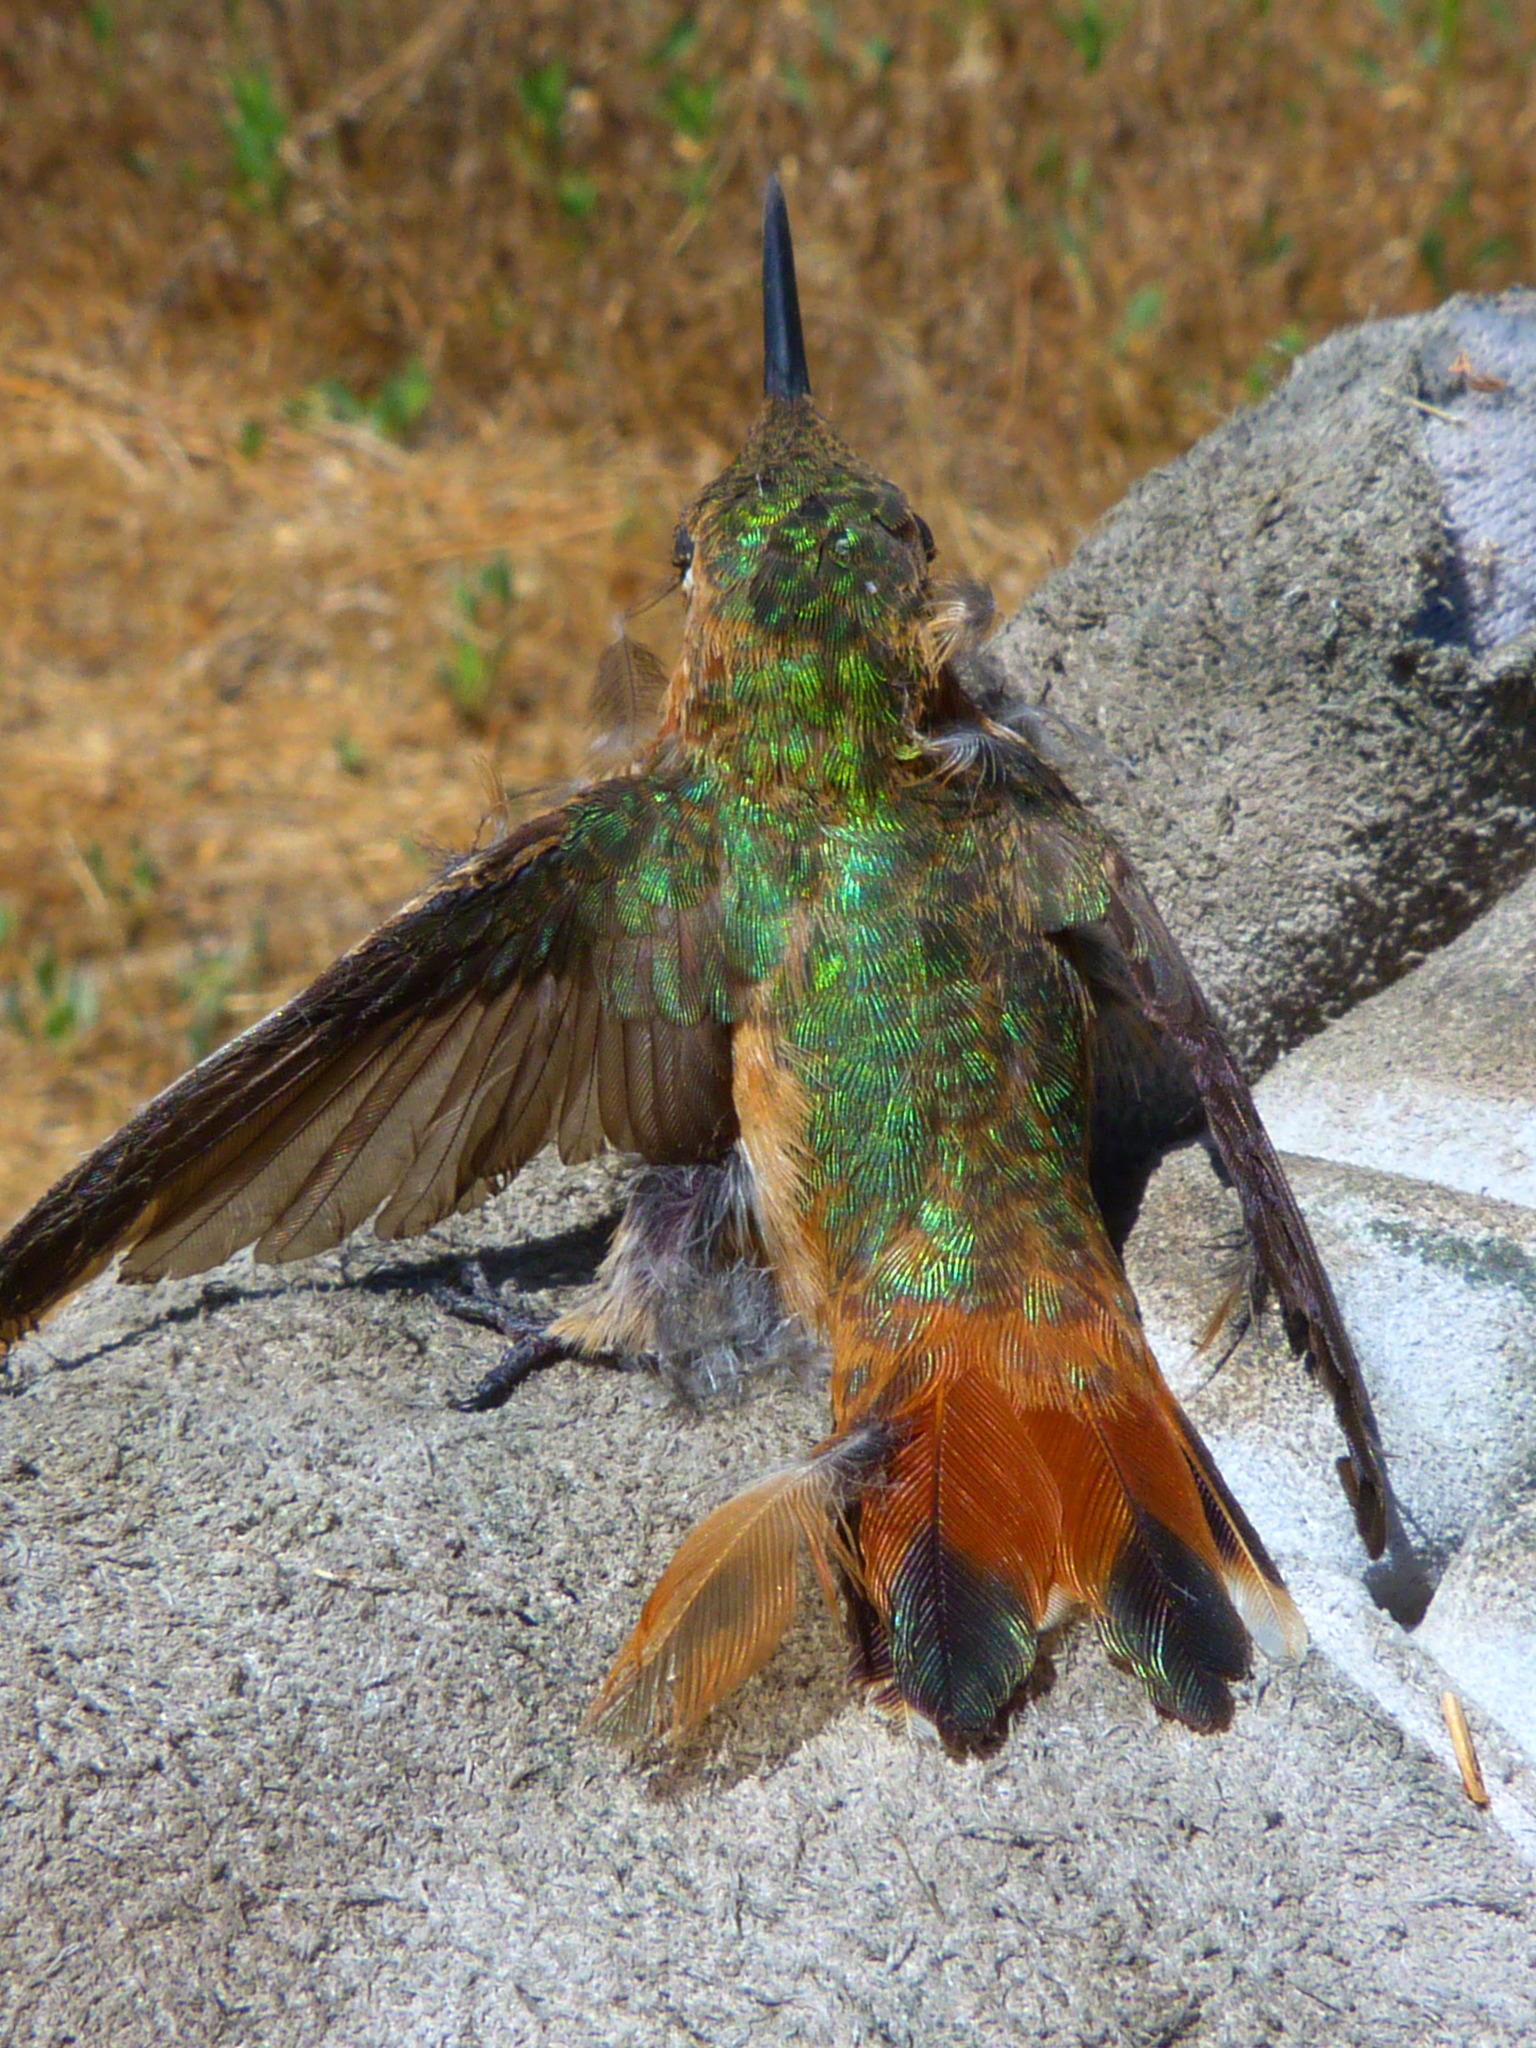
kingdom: Animalia
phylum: Chordata
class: Aves
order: Apodiformes
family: Trochilidae
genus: Selasphorus
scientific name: Selasphorus sasin
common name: Allen's hummingbird
